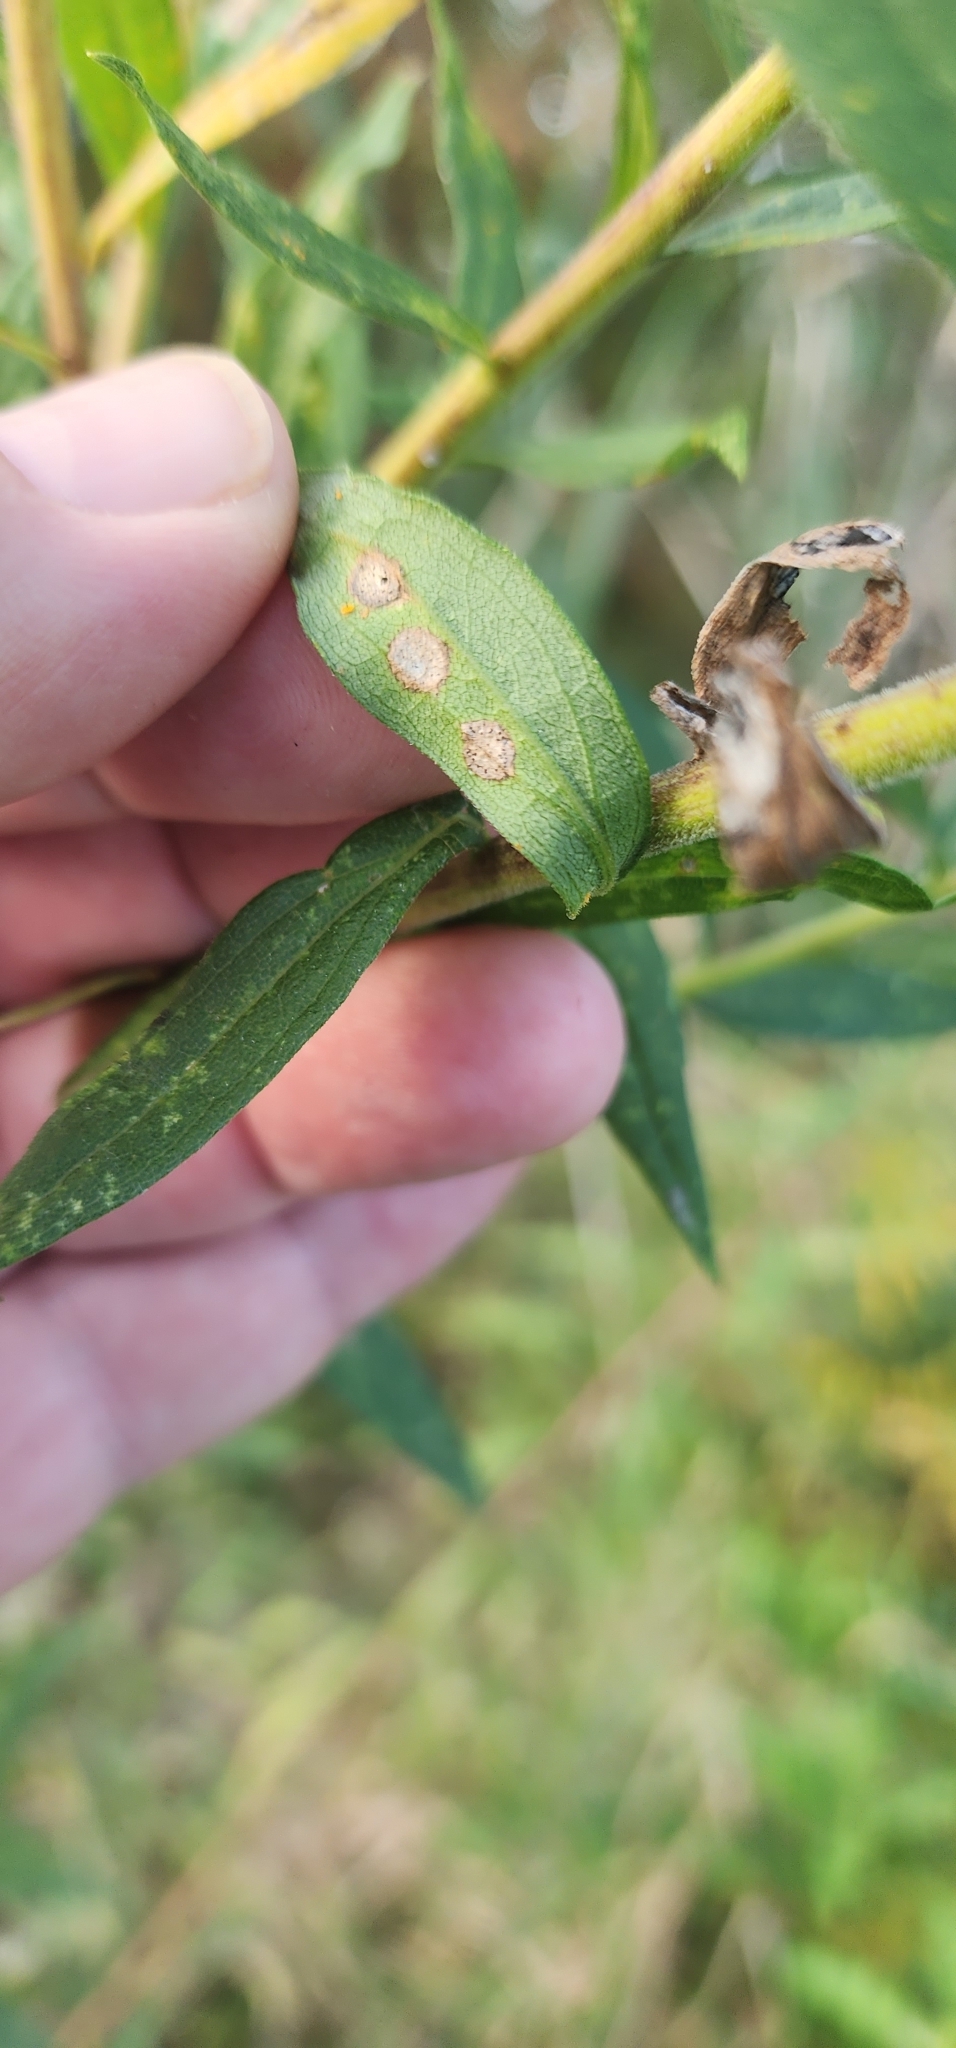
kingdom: Animalia
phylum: Arthropoda
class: Insecta
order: Diptera
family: Cecidomyiidae
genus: Asteromyia
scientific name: Asteromyia carbonifera
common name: Carbonifera goldenrod gall midge
